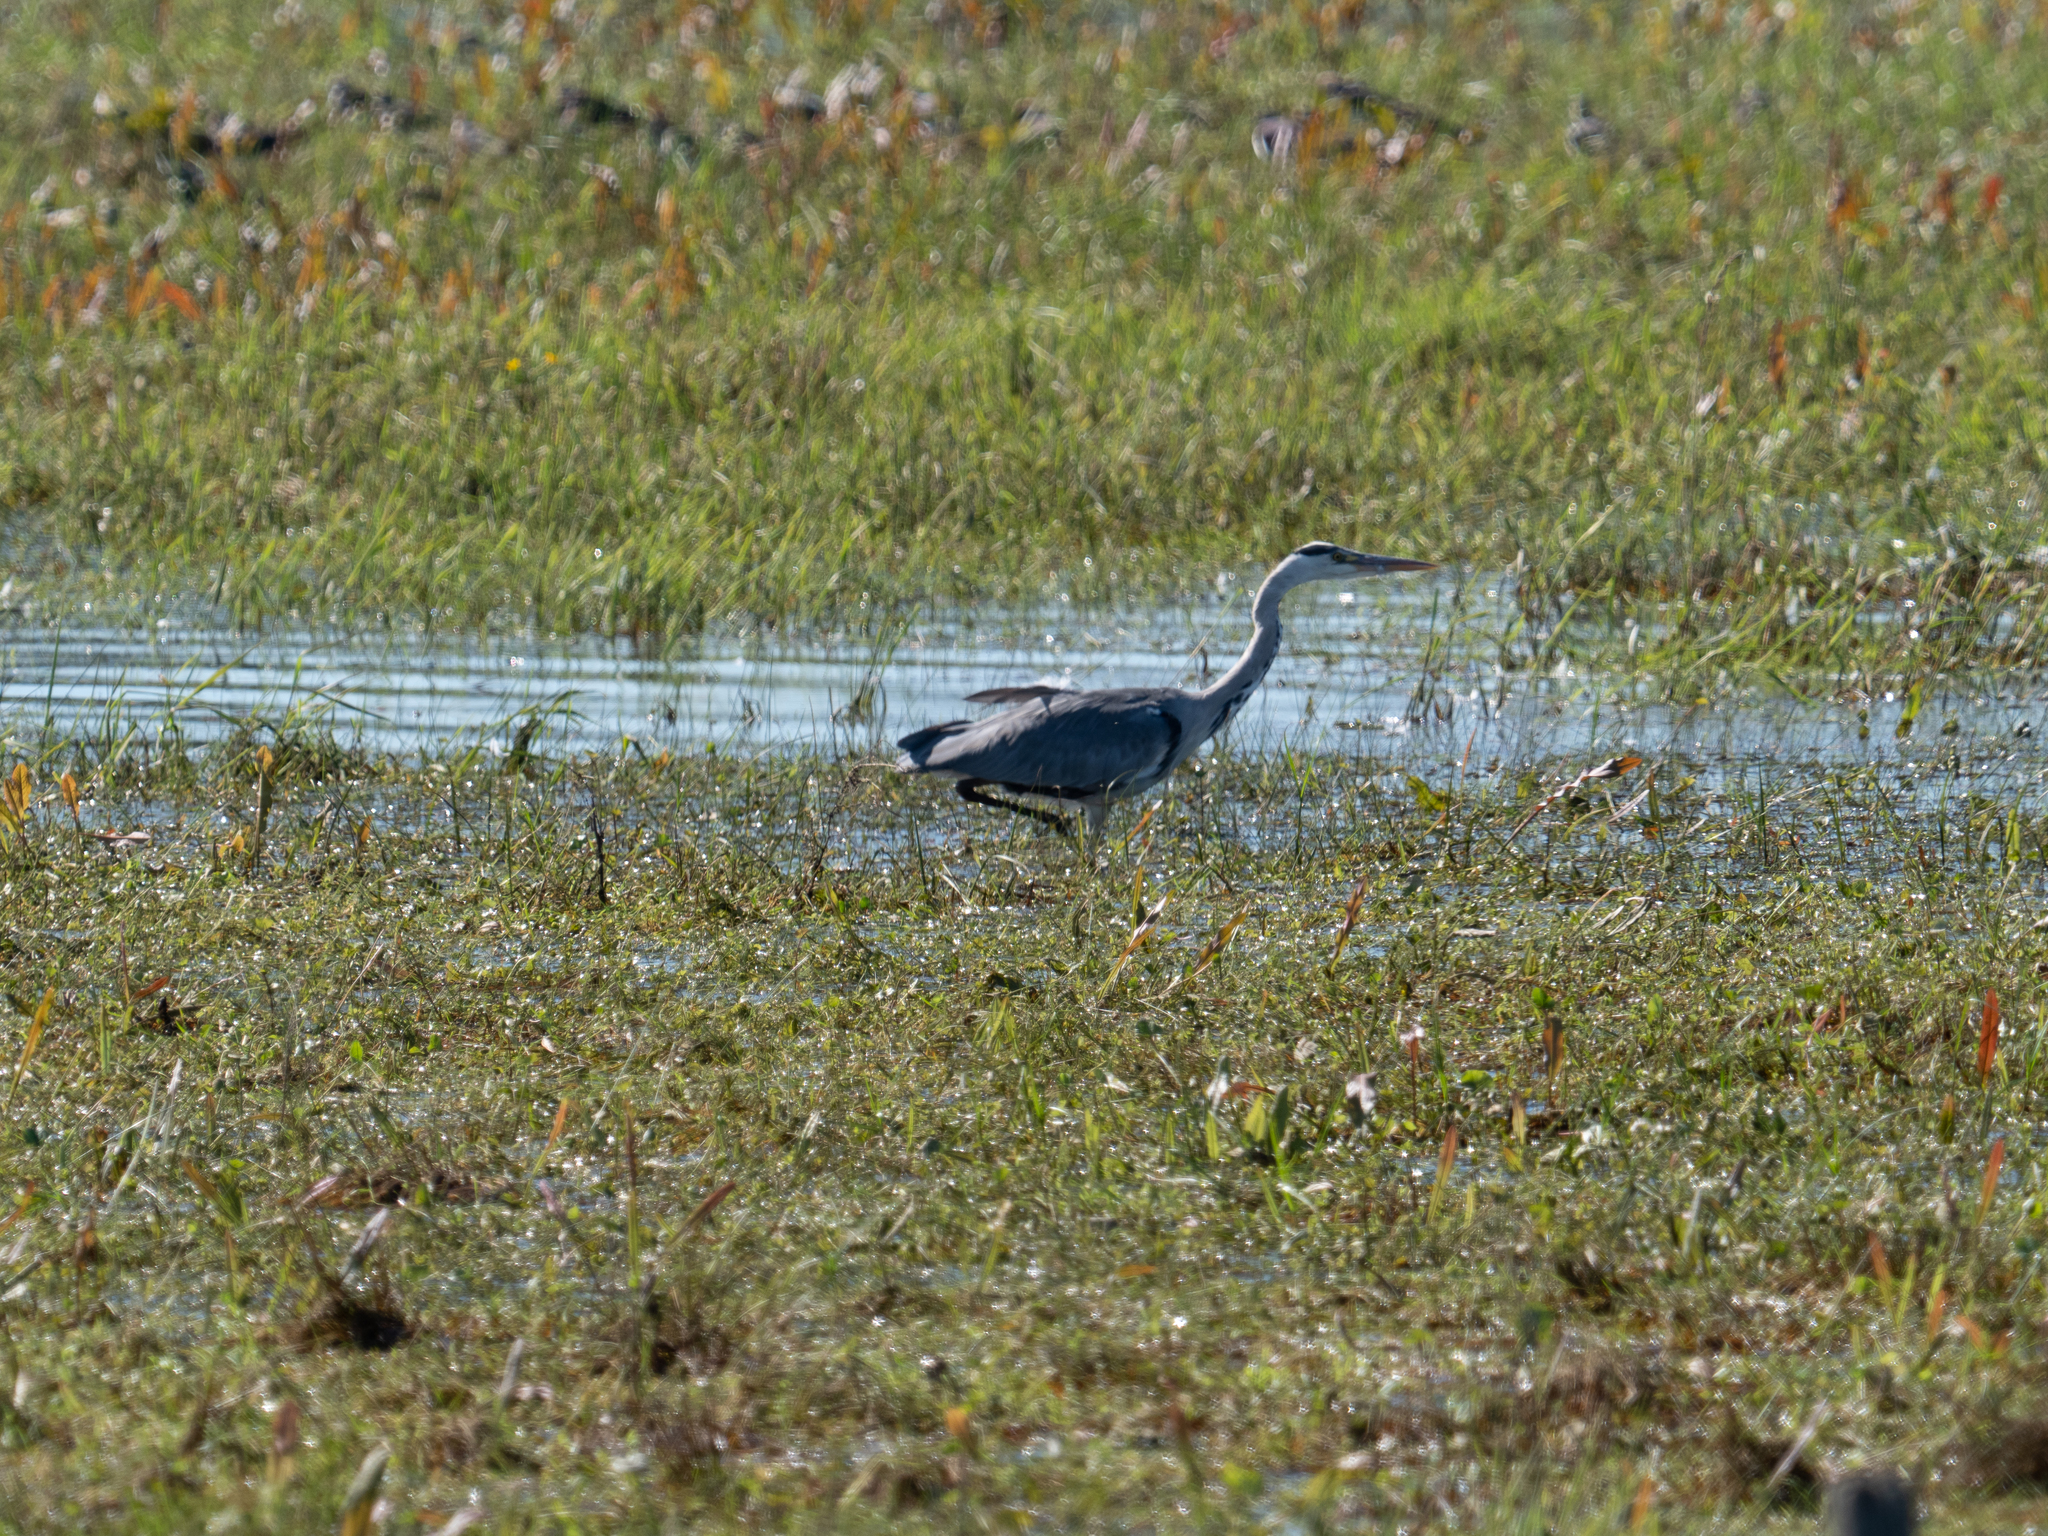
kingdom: Animalia
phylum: Chordata
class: Aves
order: Pelecaniformes
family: Ardeidae
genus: Ardea
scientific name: Ardea cinerea
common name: Grey heron
